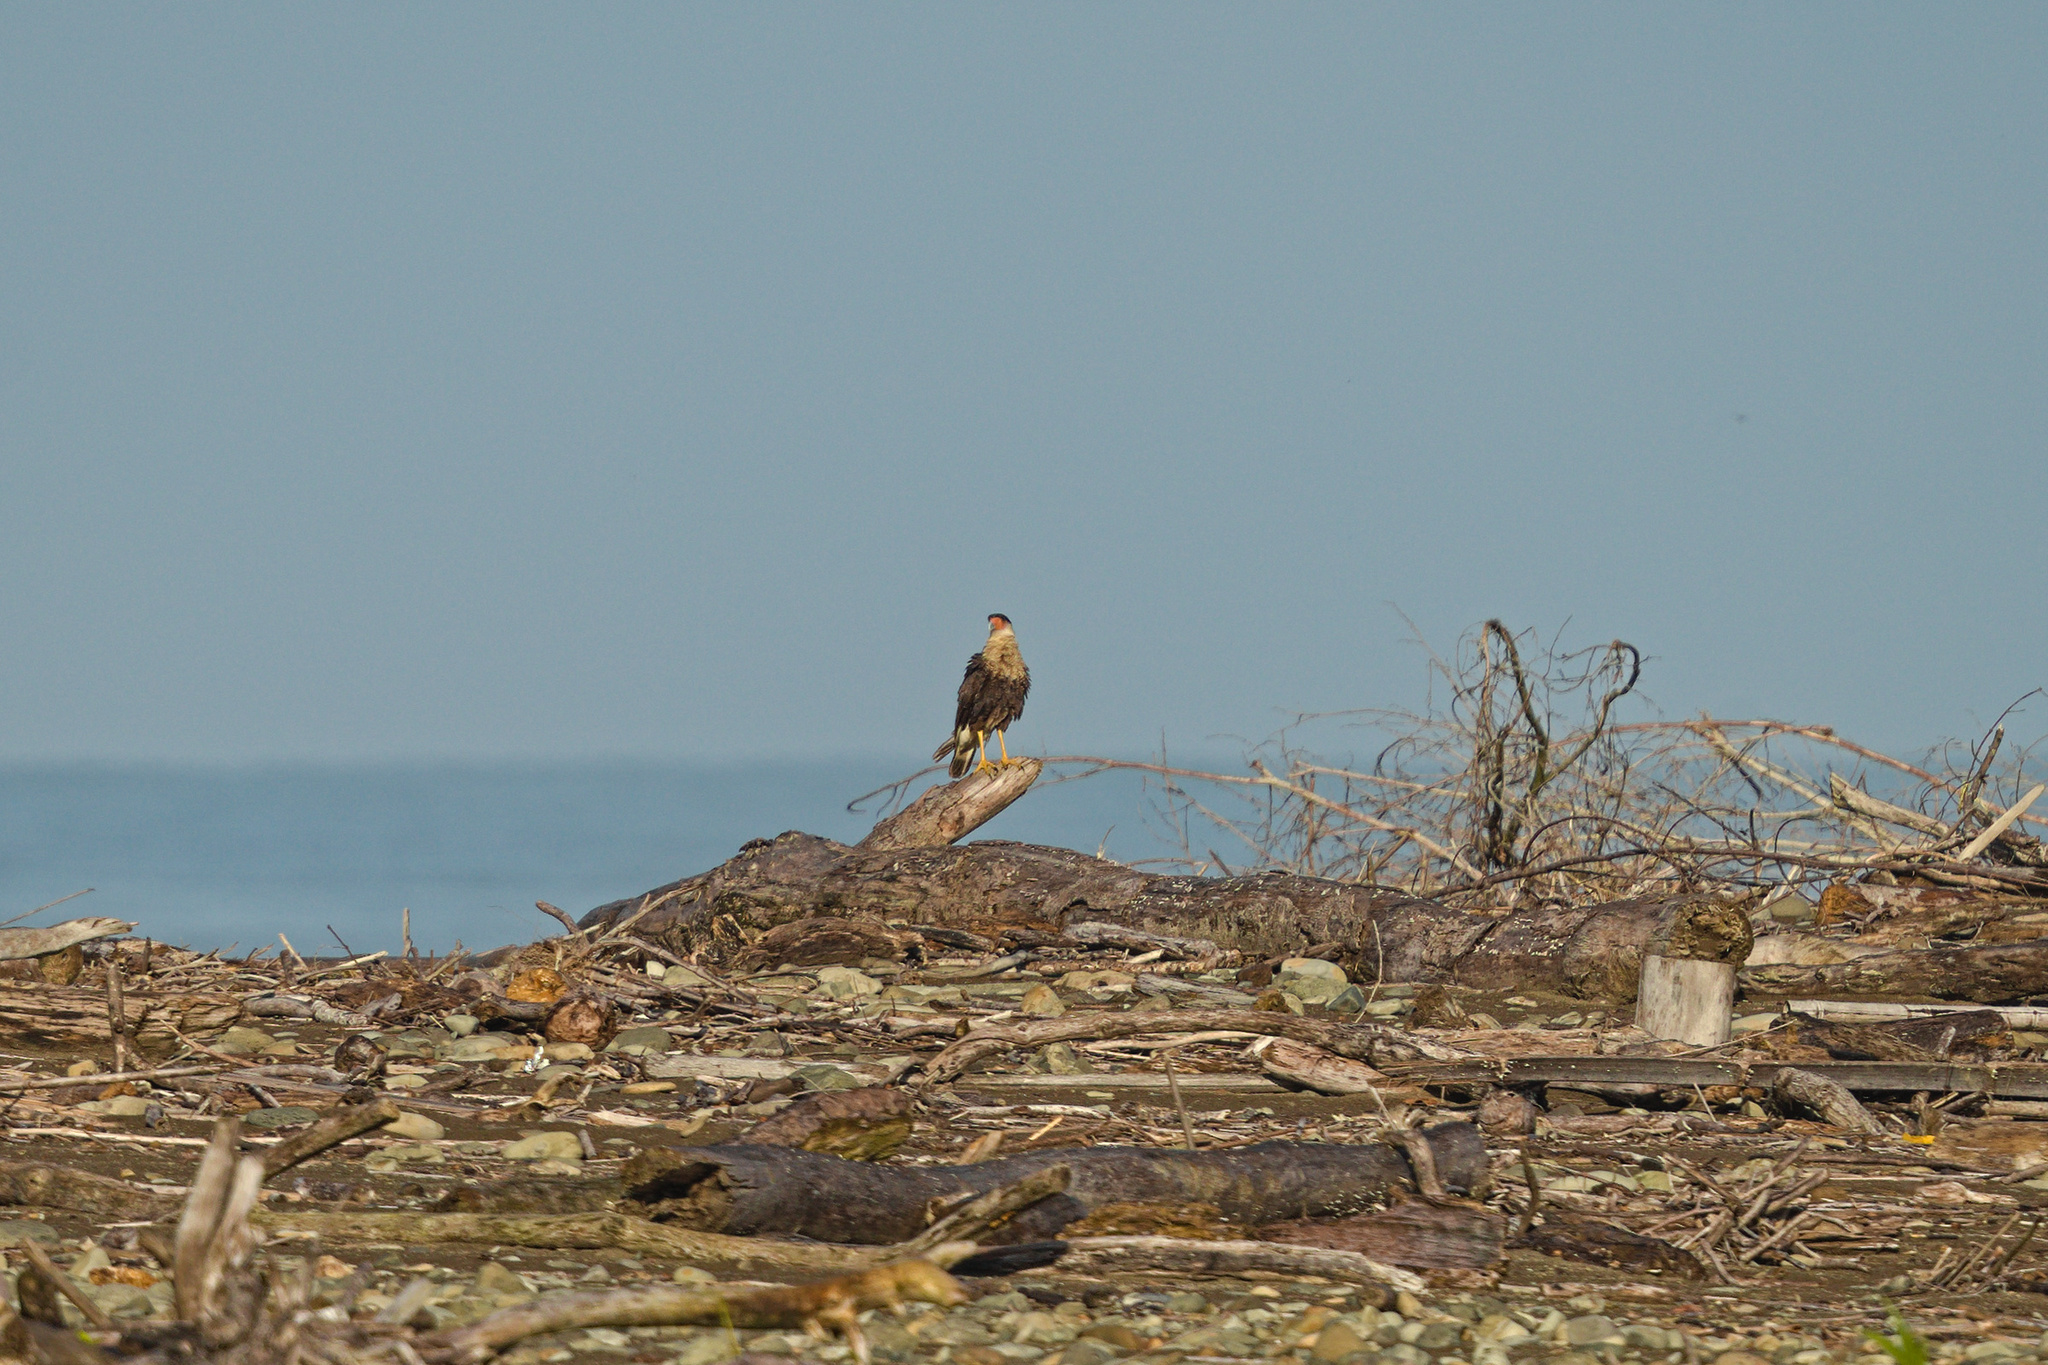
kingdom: Animalia
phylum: Chordata
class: Aves
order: Falconiformes
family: Falconidae
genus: Caracara
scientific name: Caracara plancus
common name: Southern caracara
